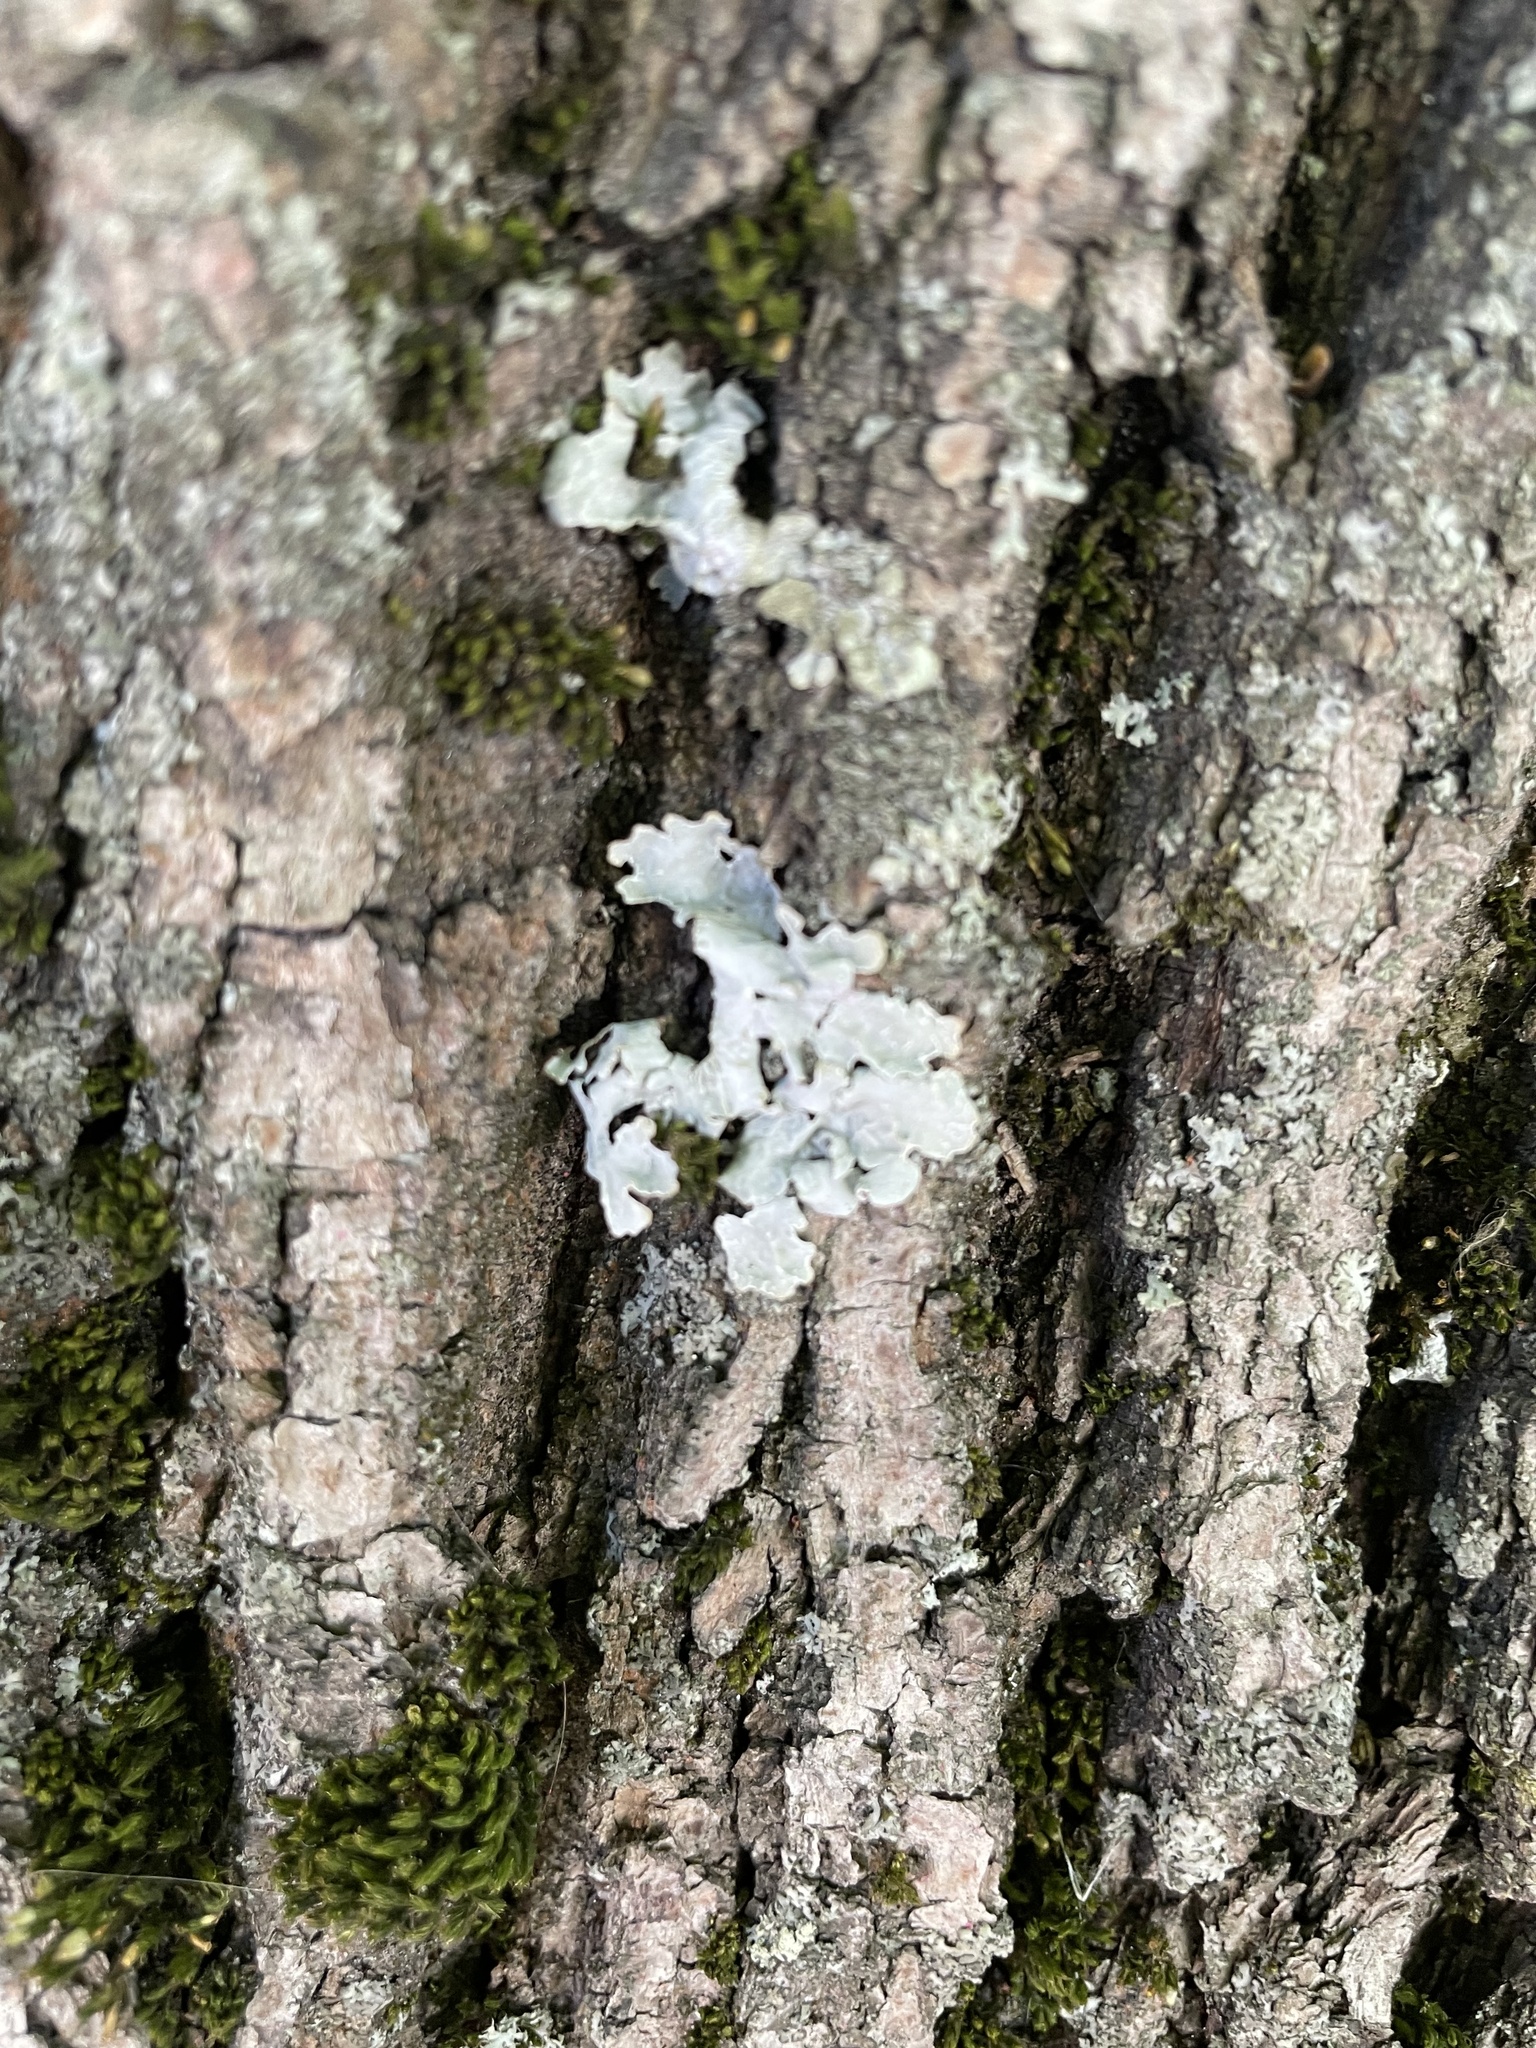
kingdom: Fungi
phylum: Ascomycota
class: Lecanoromycetes
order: Lecanorales
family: Parmeliaceae
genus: Parmelia
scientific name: Parmelia sulcata
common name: Netted shield lichen
